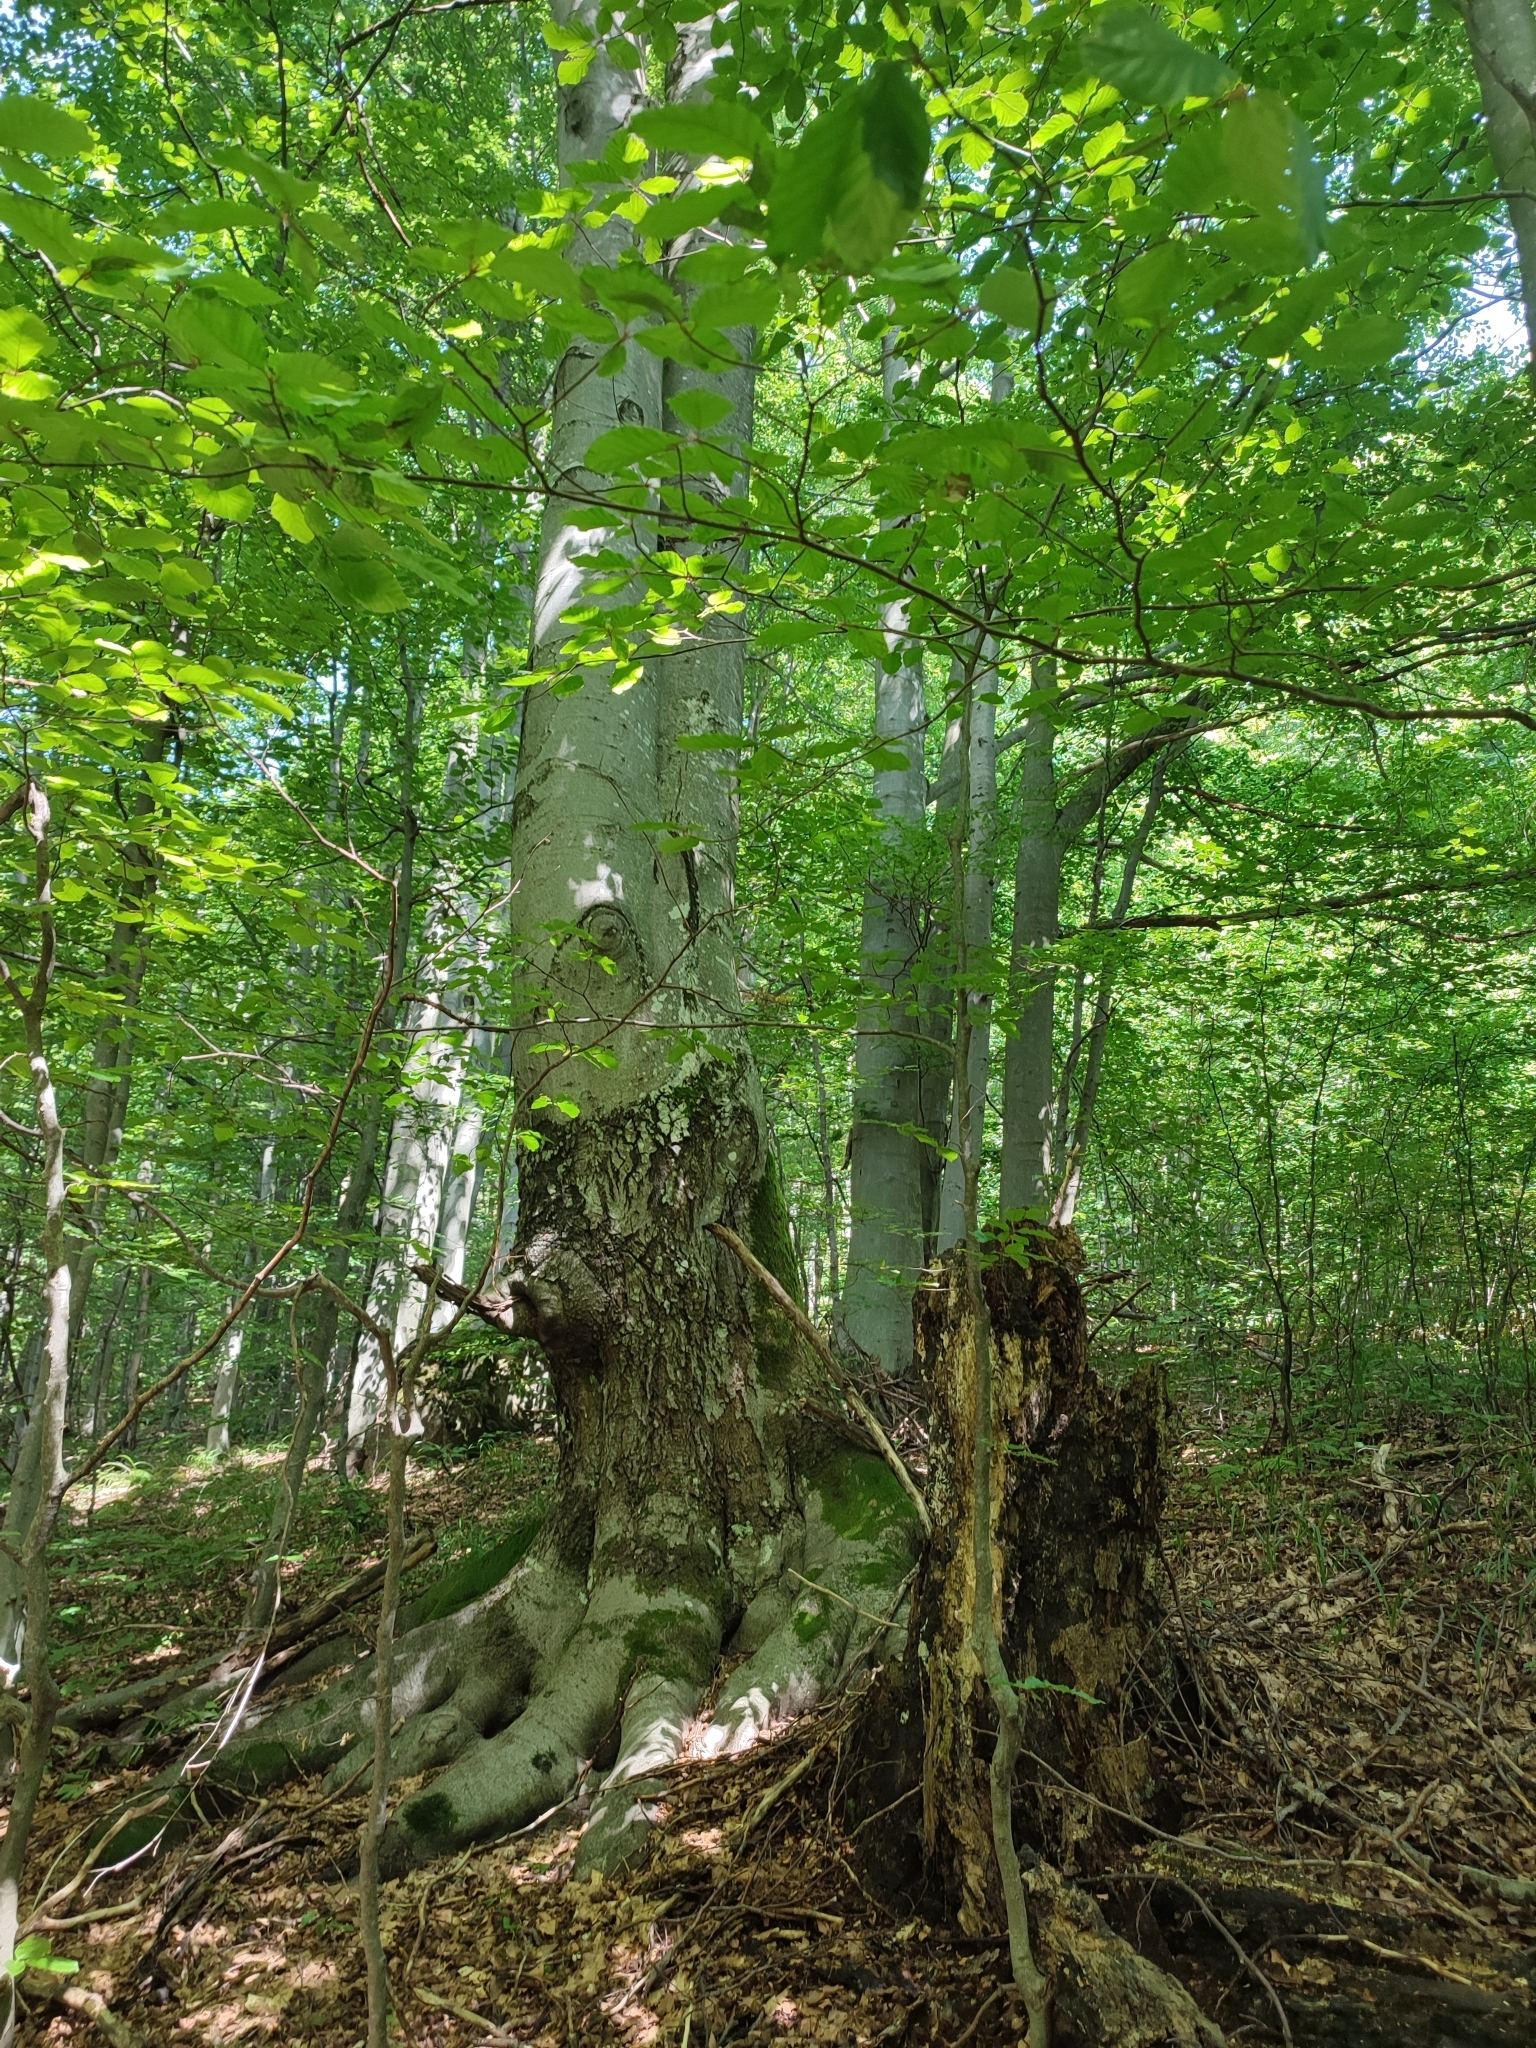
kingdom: Plantae
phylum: Tracheophyta
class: Magnoliopsida
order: Fagales
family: Fagaceae
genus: Fagus
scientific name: Fagus sylvatica
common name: Beech
